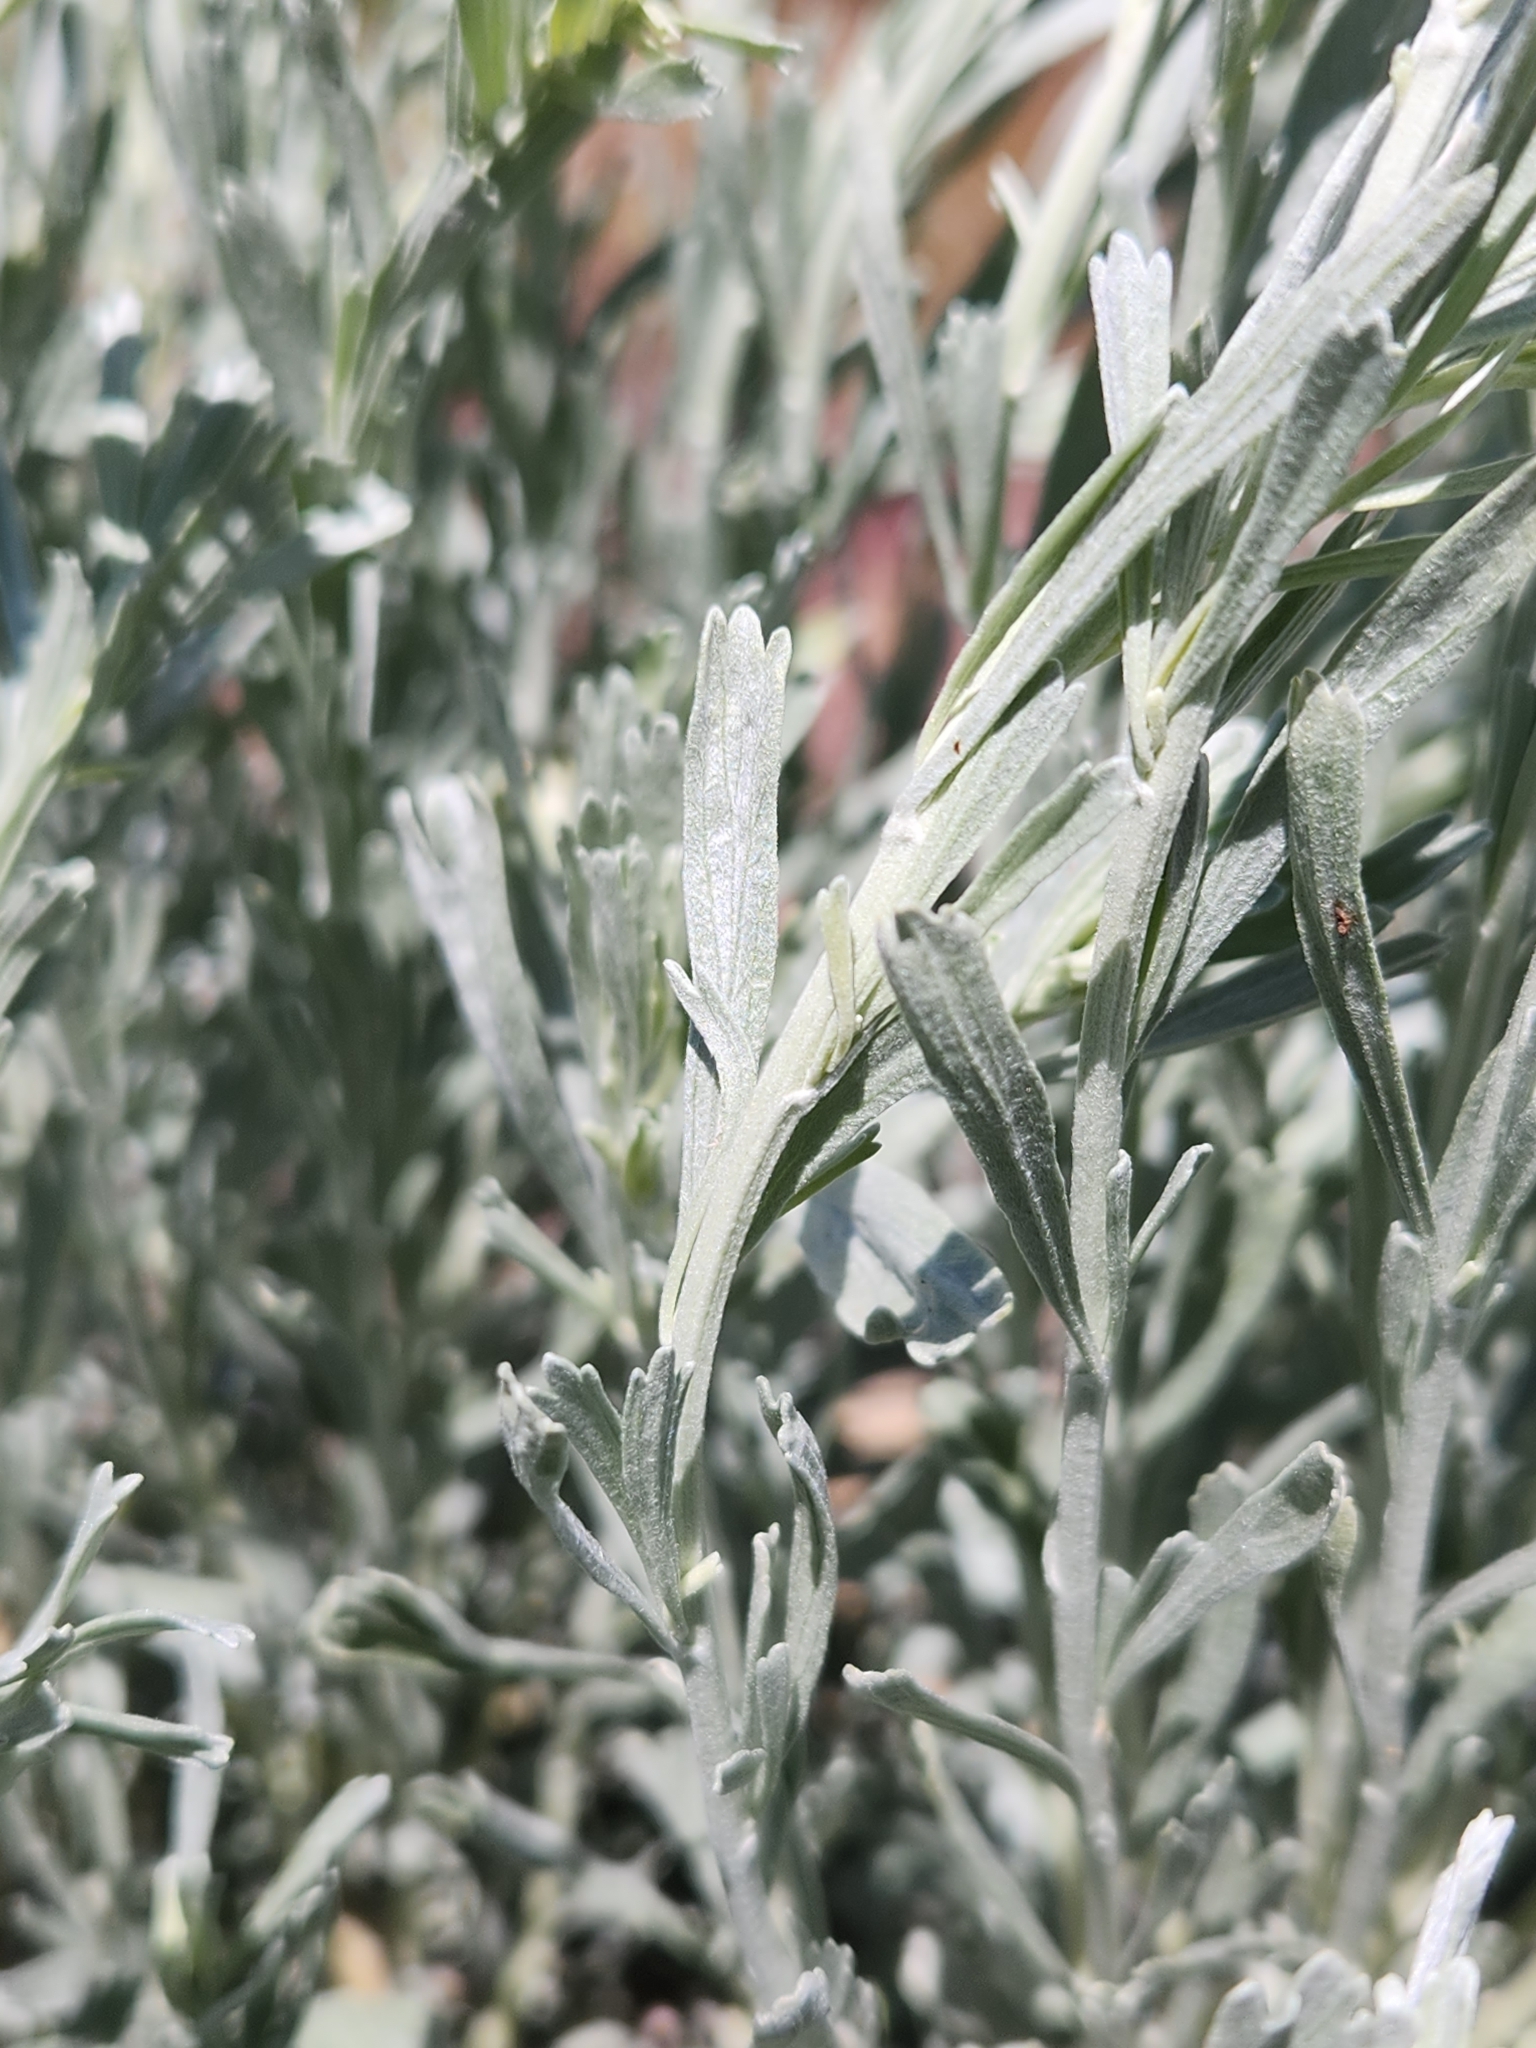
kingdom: Plantae
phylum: Tracheophyta
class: Magnoliopsida
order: Asterales
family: Asteraceae
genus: Artemisia
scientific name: Artemisia tridentata
